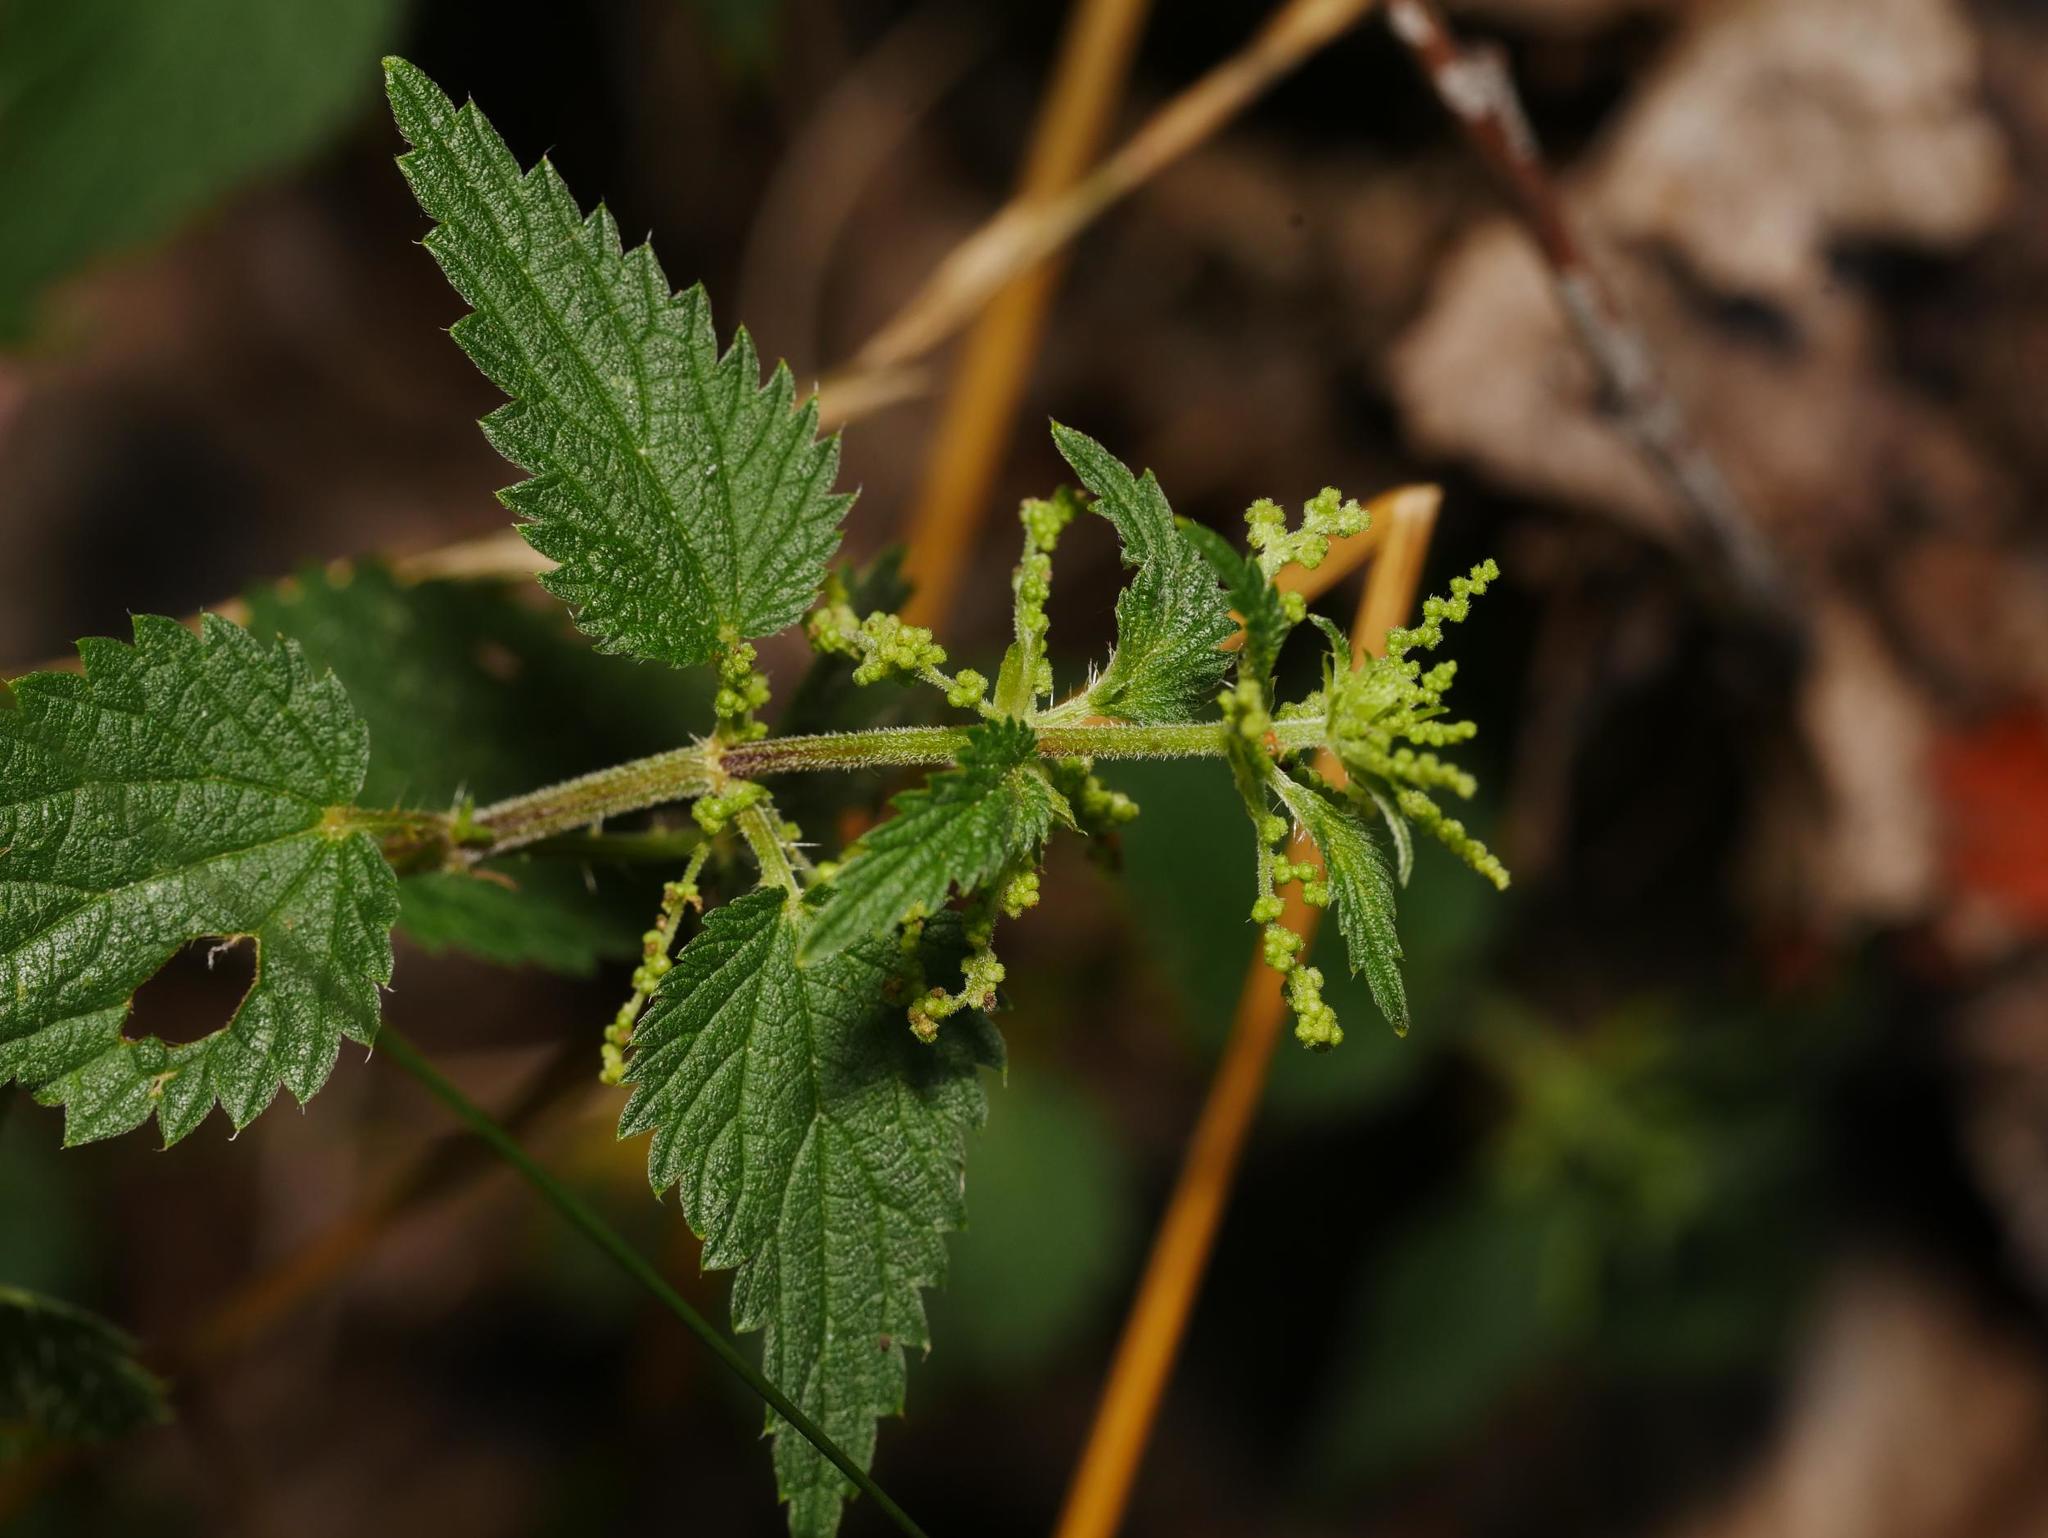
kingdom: Plantae
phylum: Tracheophyta
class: Magnoliopsida
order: Rosales
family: Urticaceae
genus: Urtica
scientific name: Urtica dioica
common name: Common nettle
